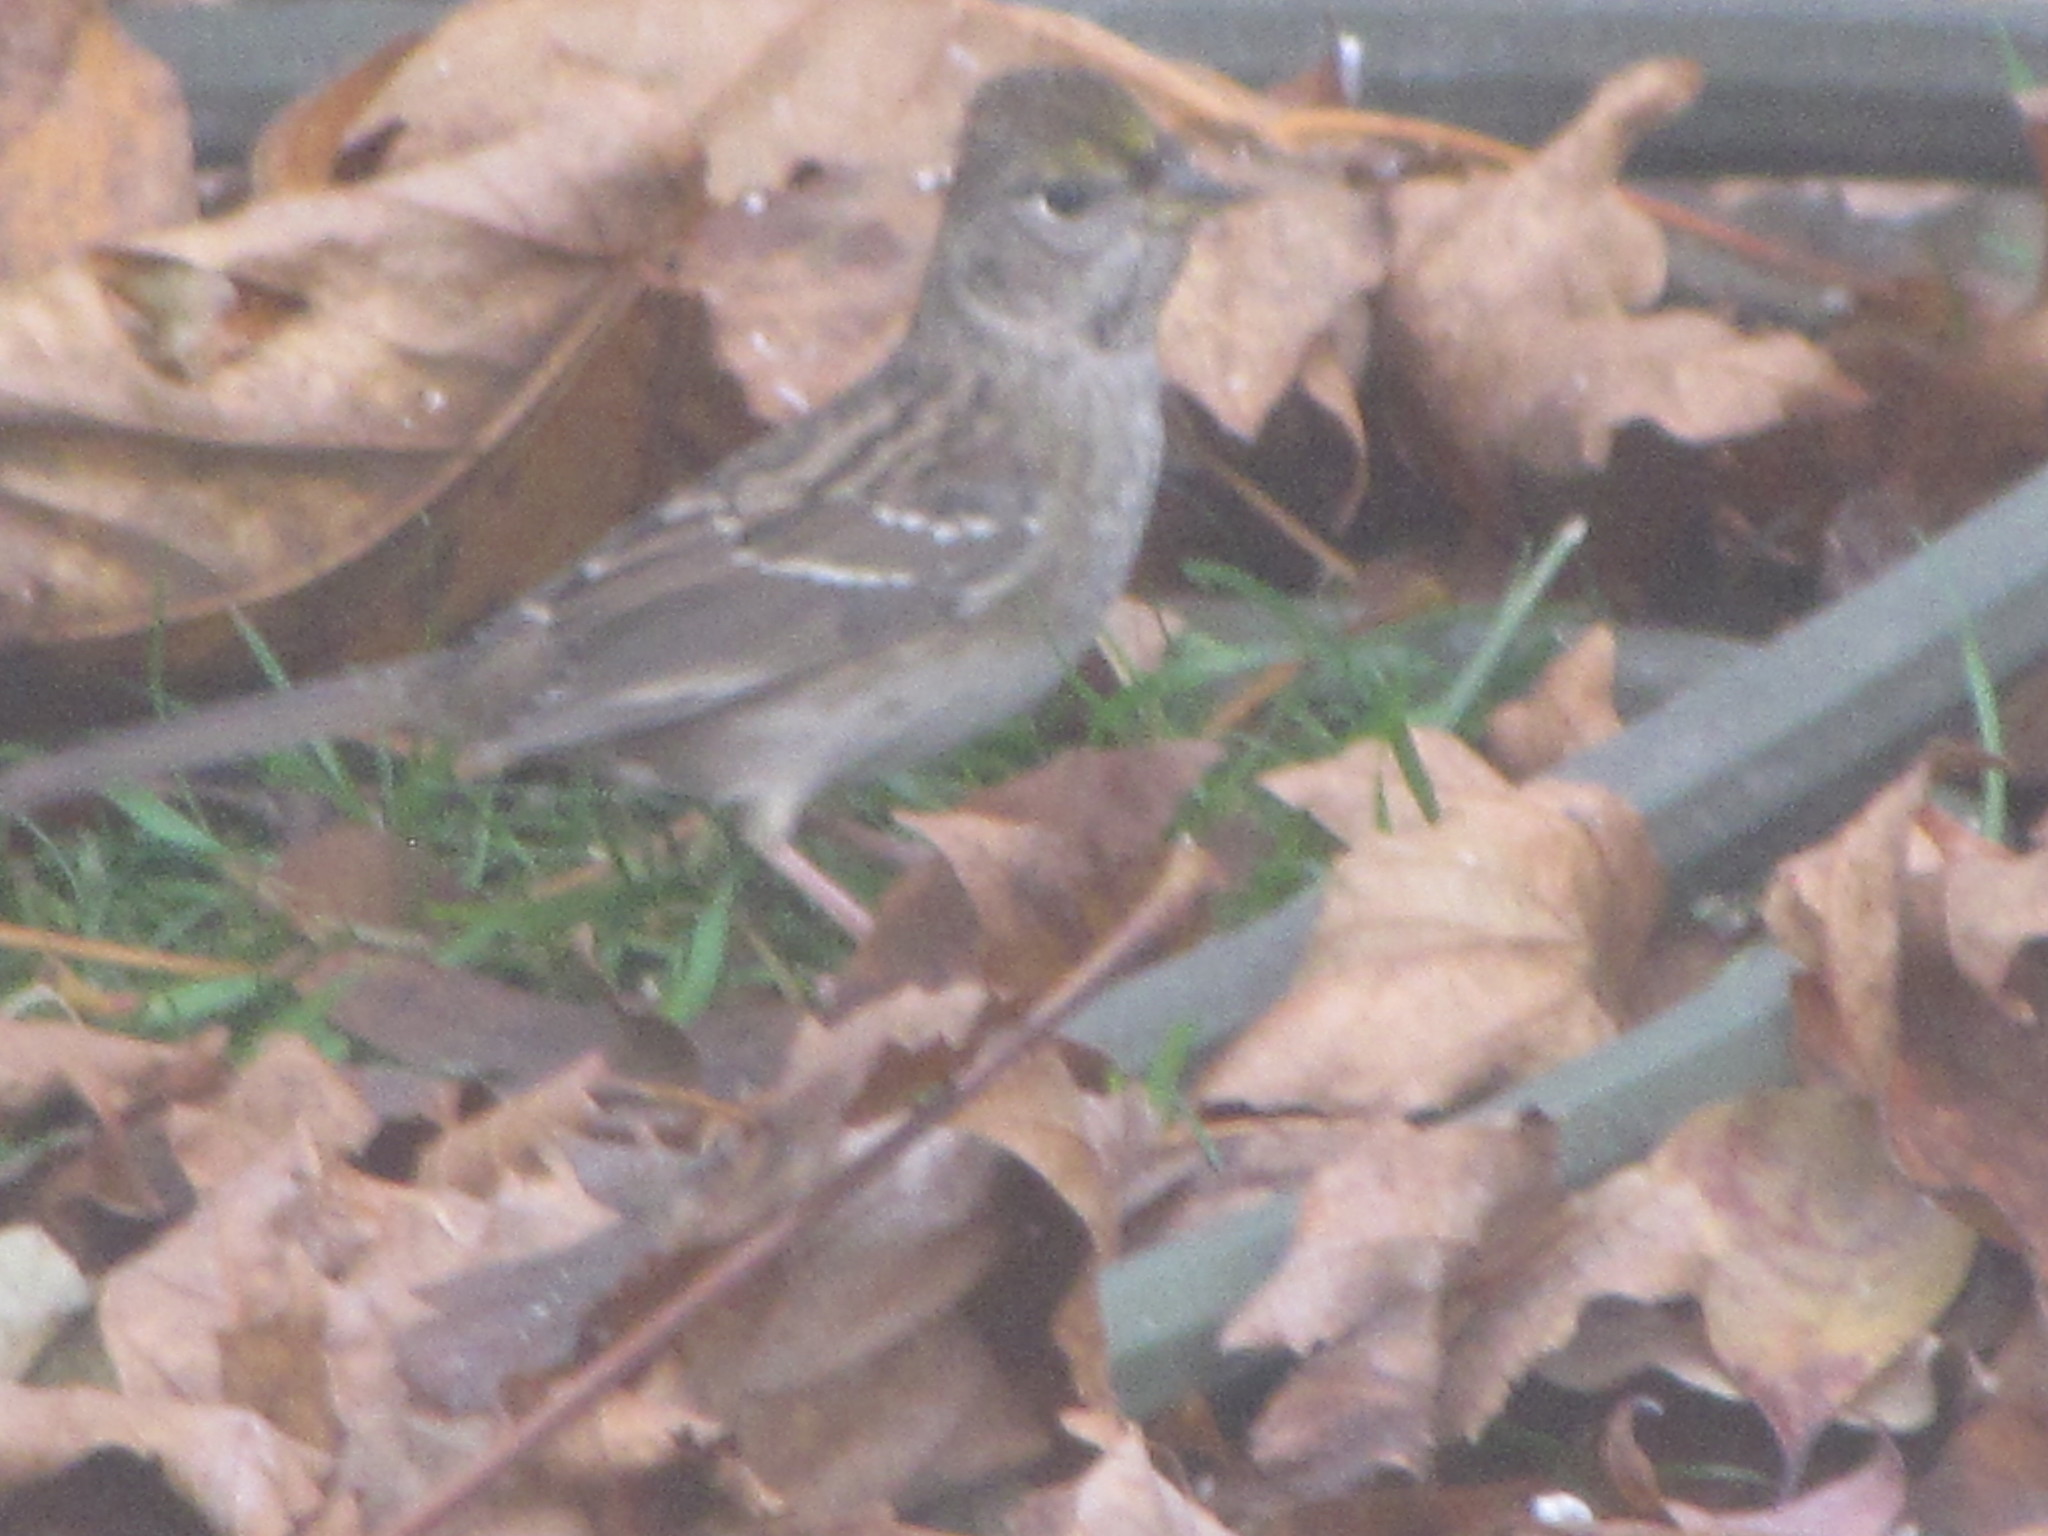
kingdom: Animalia
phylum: Chordata
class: Aves
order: Passeriformes
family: Passerellidae
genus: Zonotrichia
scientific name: Zonotrichia atricapilla
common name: Golden-crowned sparrow
